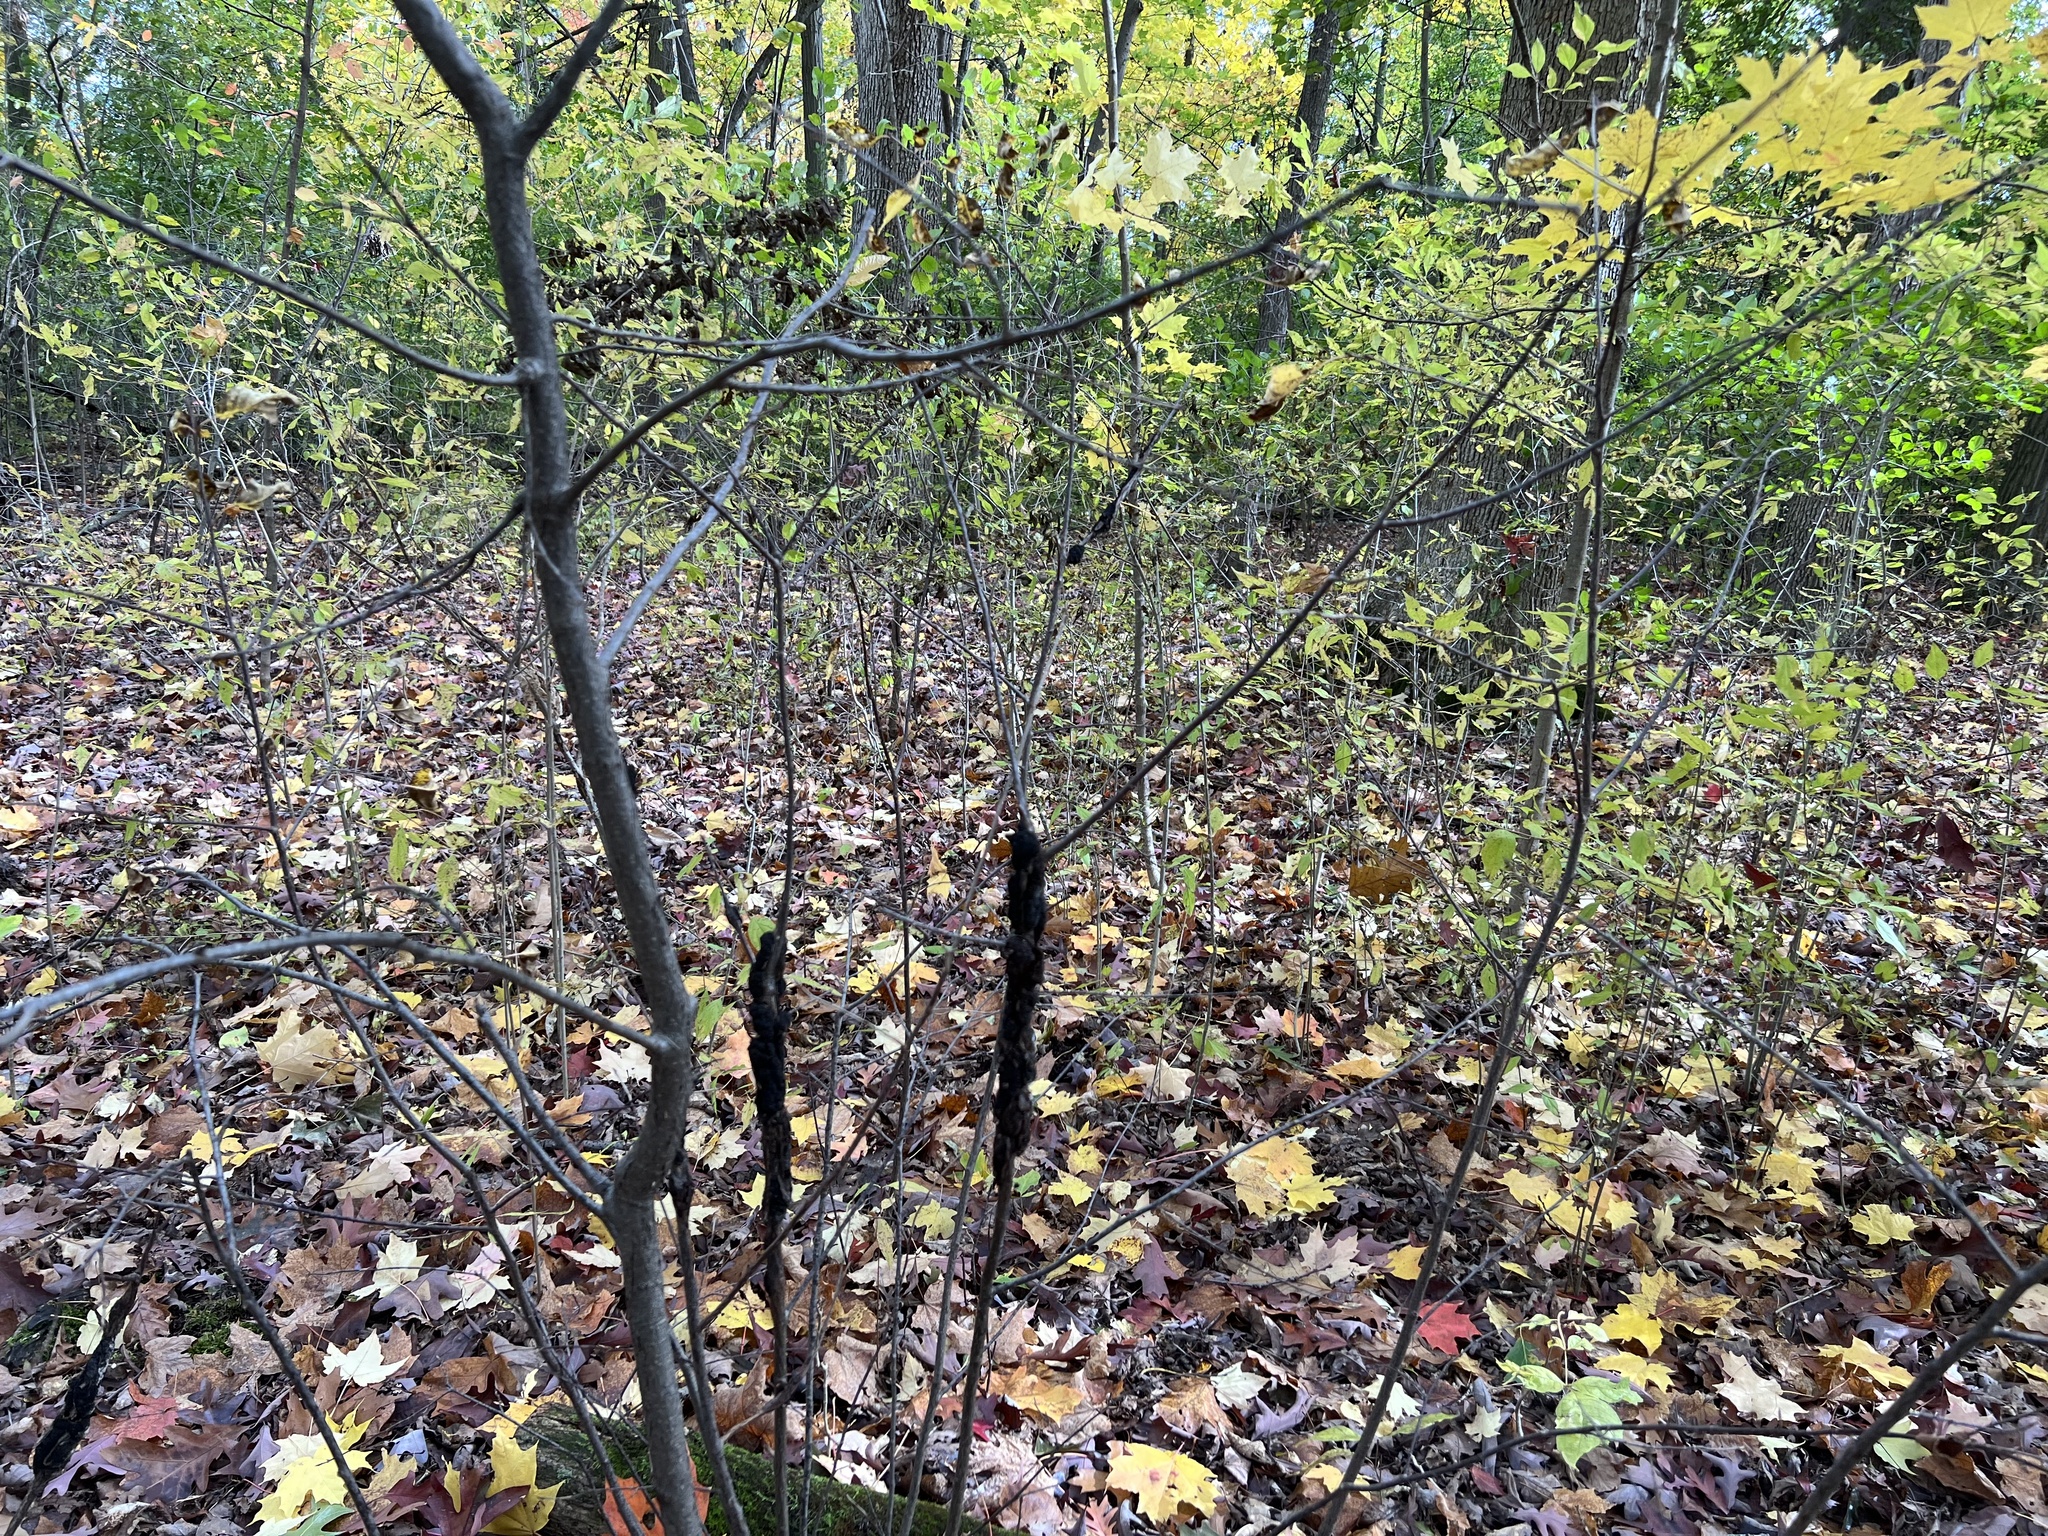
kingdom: Fungi
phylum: Ascomycota
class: Dothideomycetes
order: Venturiales
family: Venturiaceae
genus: Apiosporina
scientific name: Apiosporina morbosa
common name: Black knot
